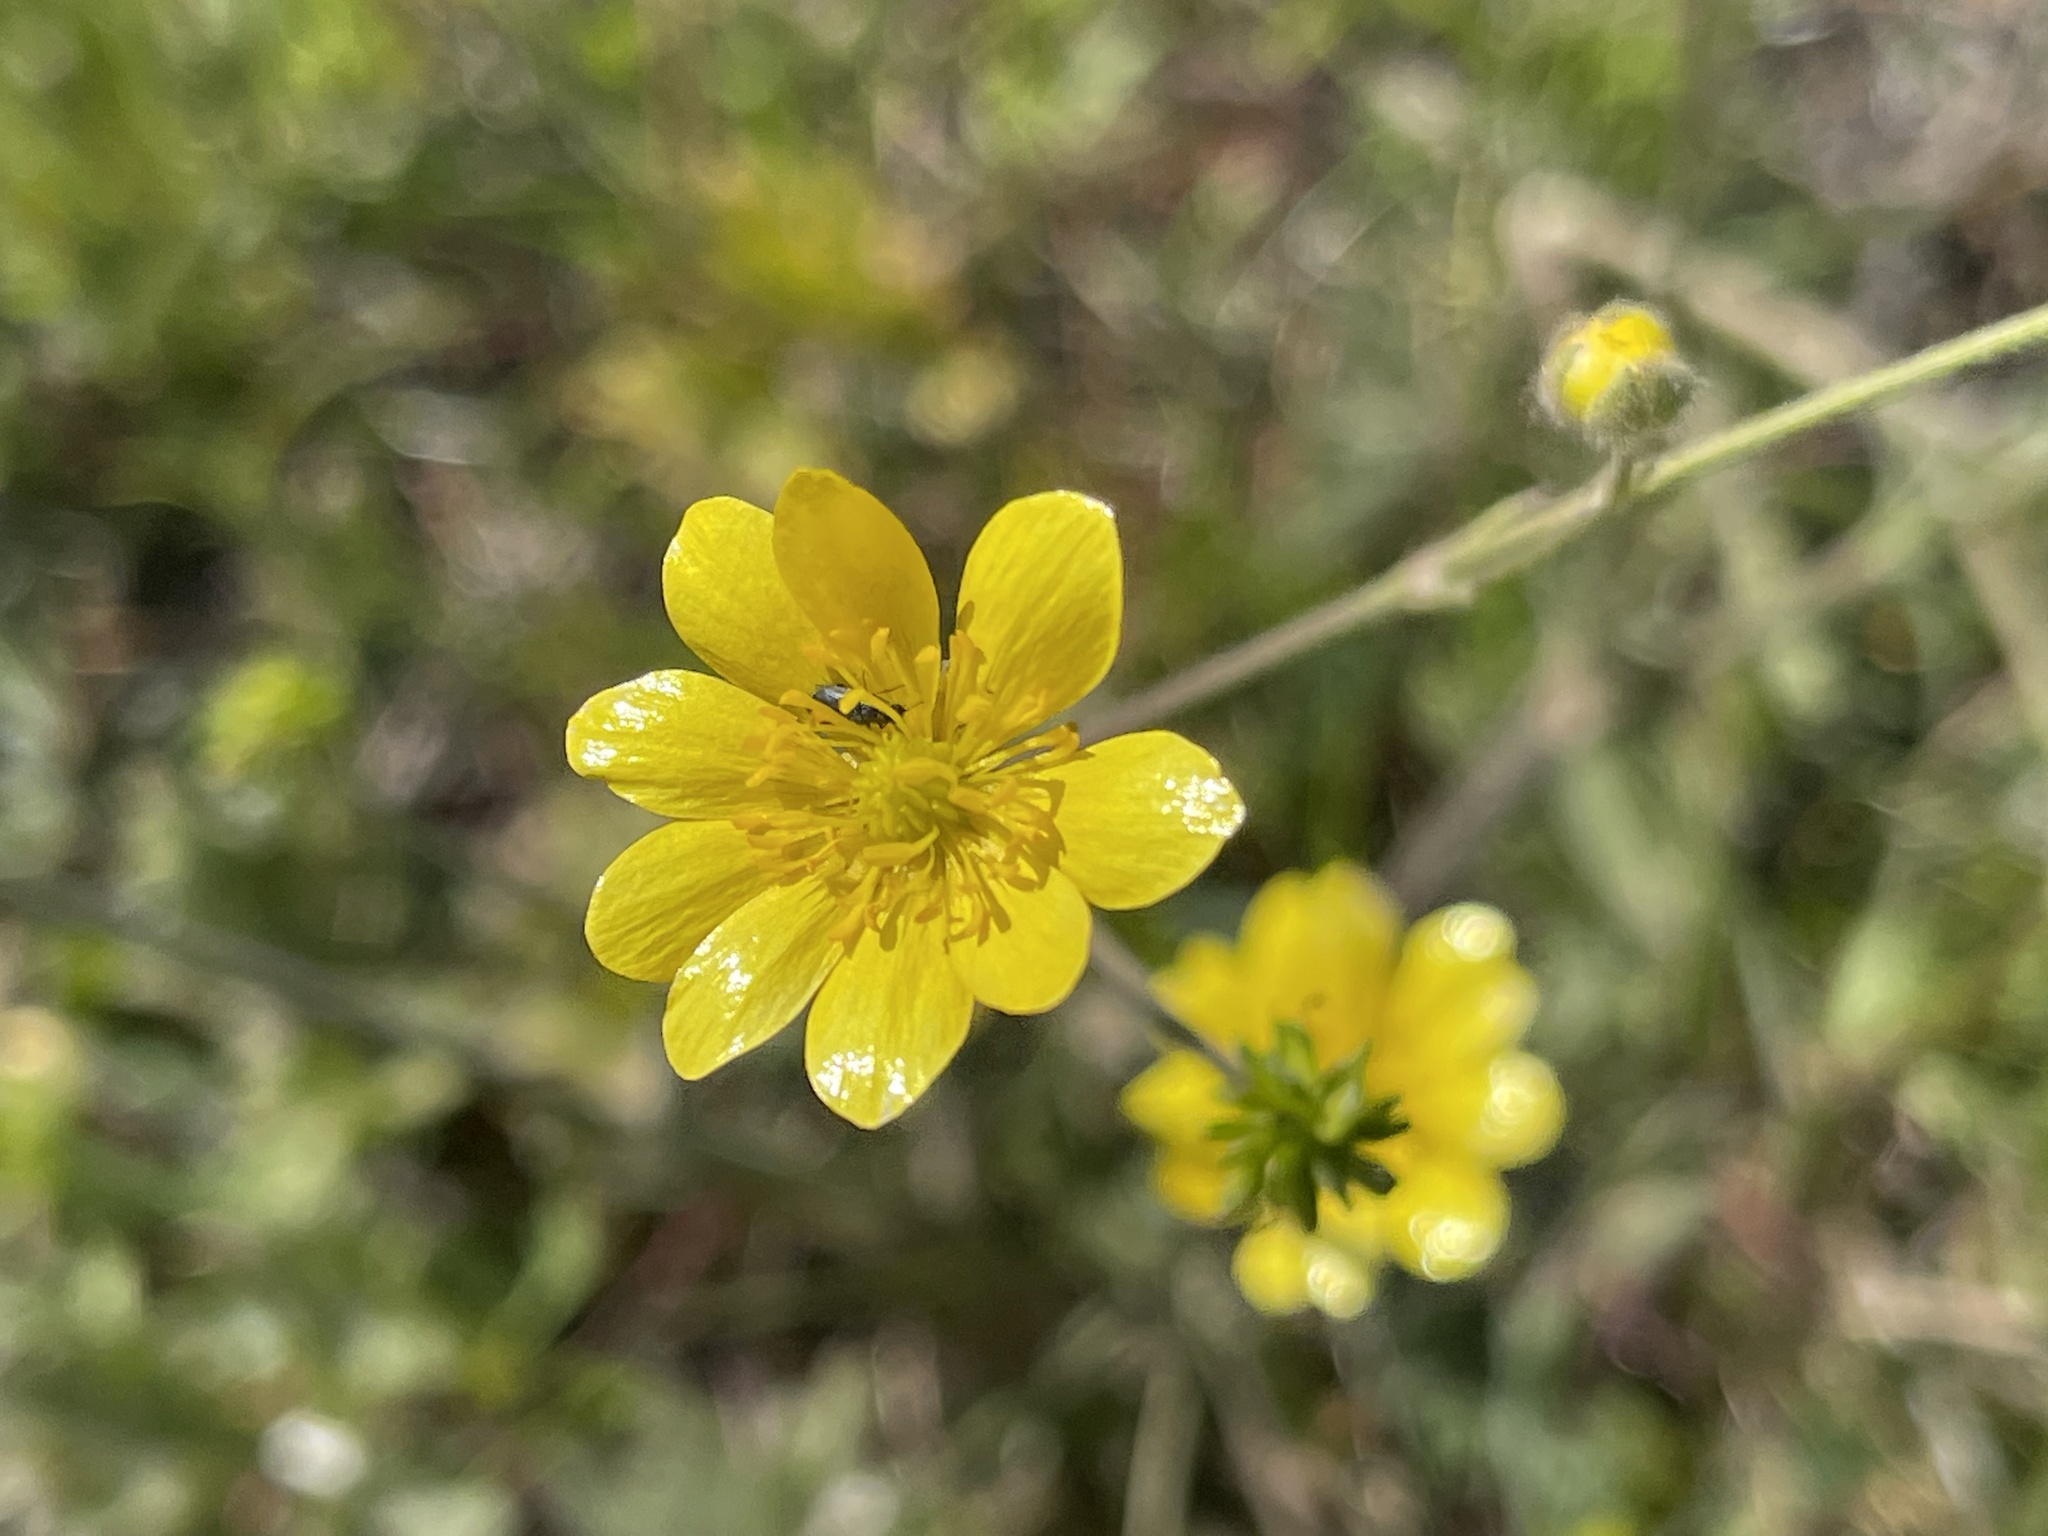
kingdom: Plantae
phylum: Tracheophyta
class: Magnoliopsida
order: Ranunculales
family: Ranunculaceae
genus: Ranunculus
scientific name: Ranunculus californicus
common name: California buttercup
